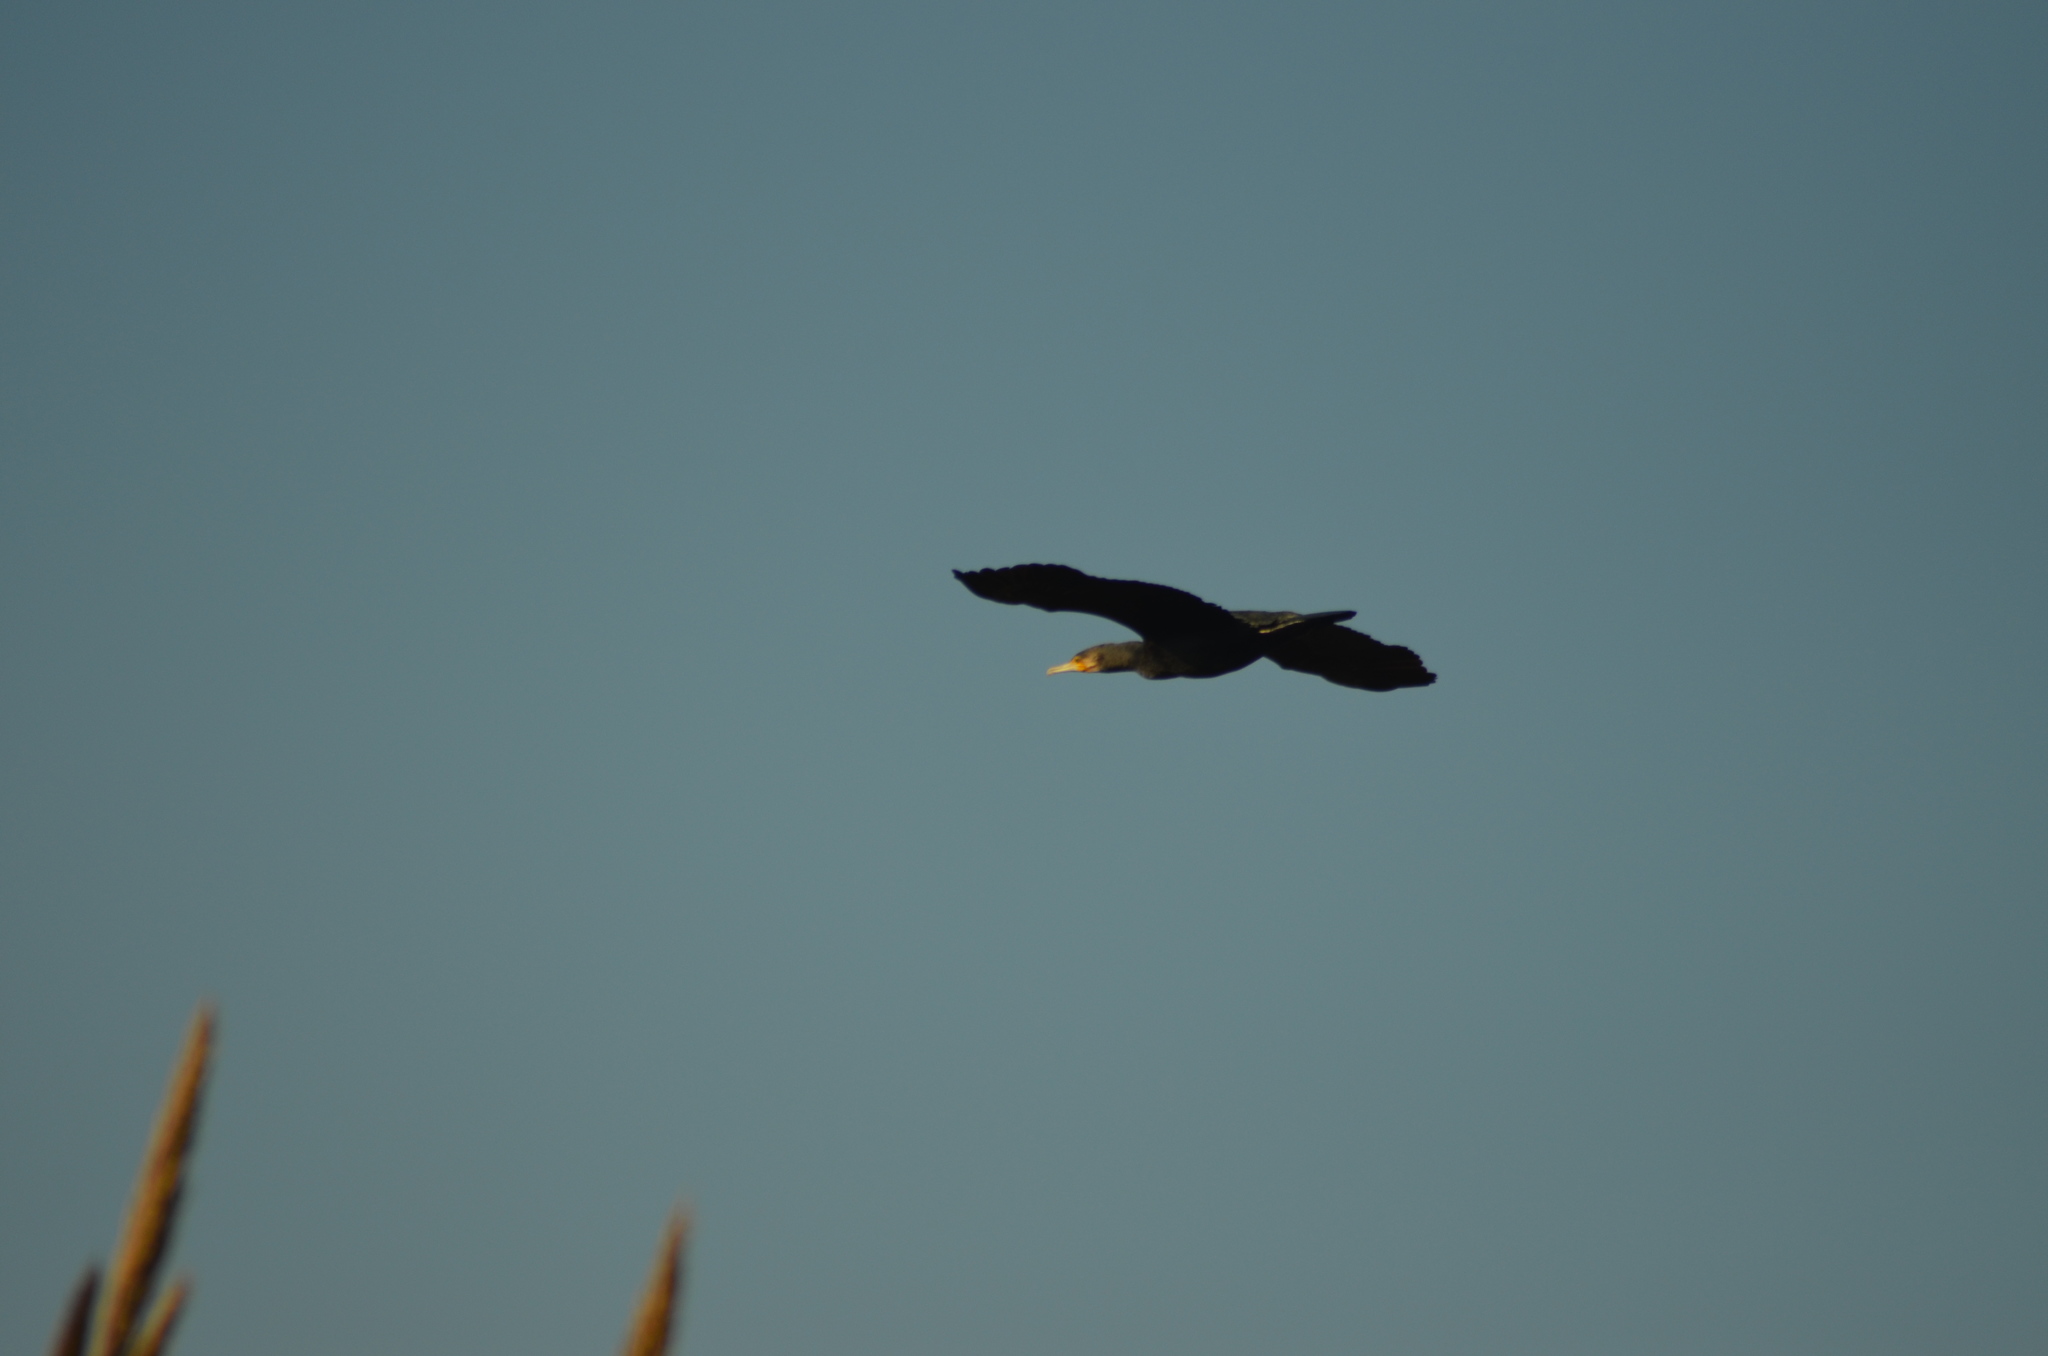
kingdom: Animalia
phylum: Chordata
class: Aves
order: Suliformes
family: Phalacrocoracidae
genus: Phalacrocorax
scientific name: Phalacrocorax carbo
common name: Great cormorant
